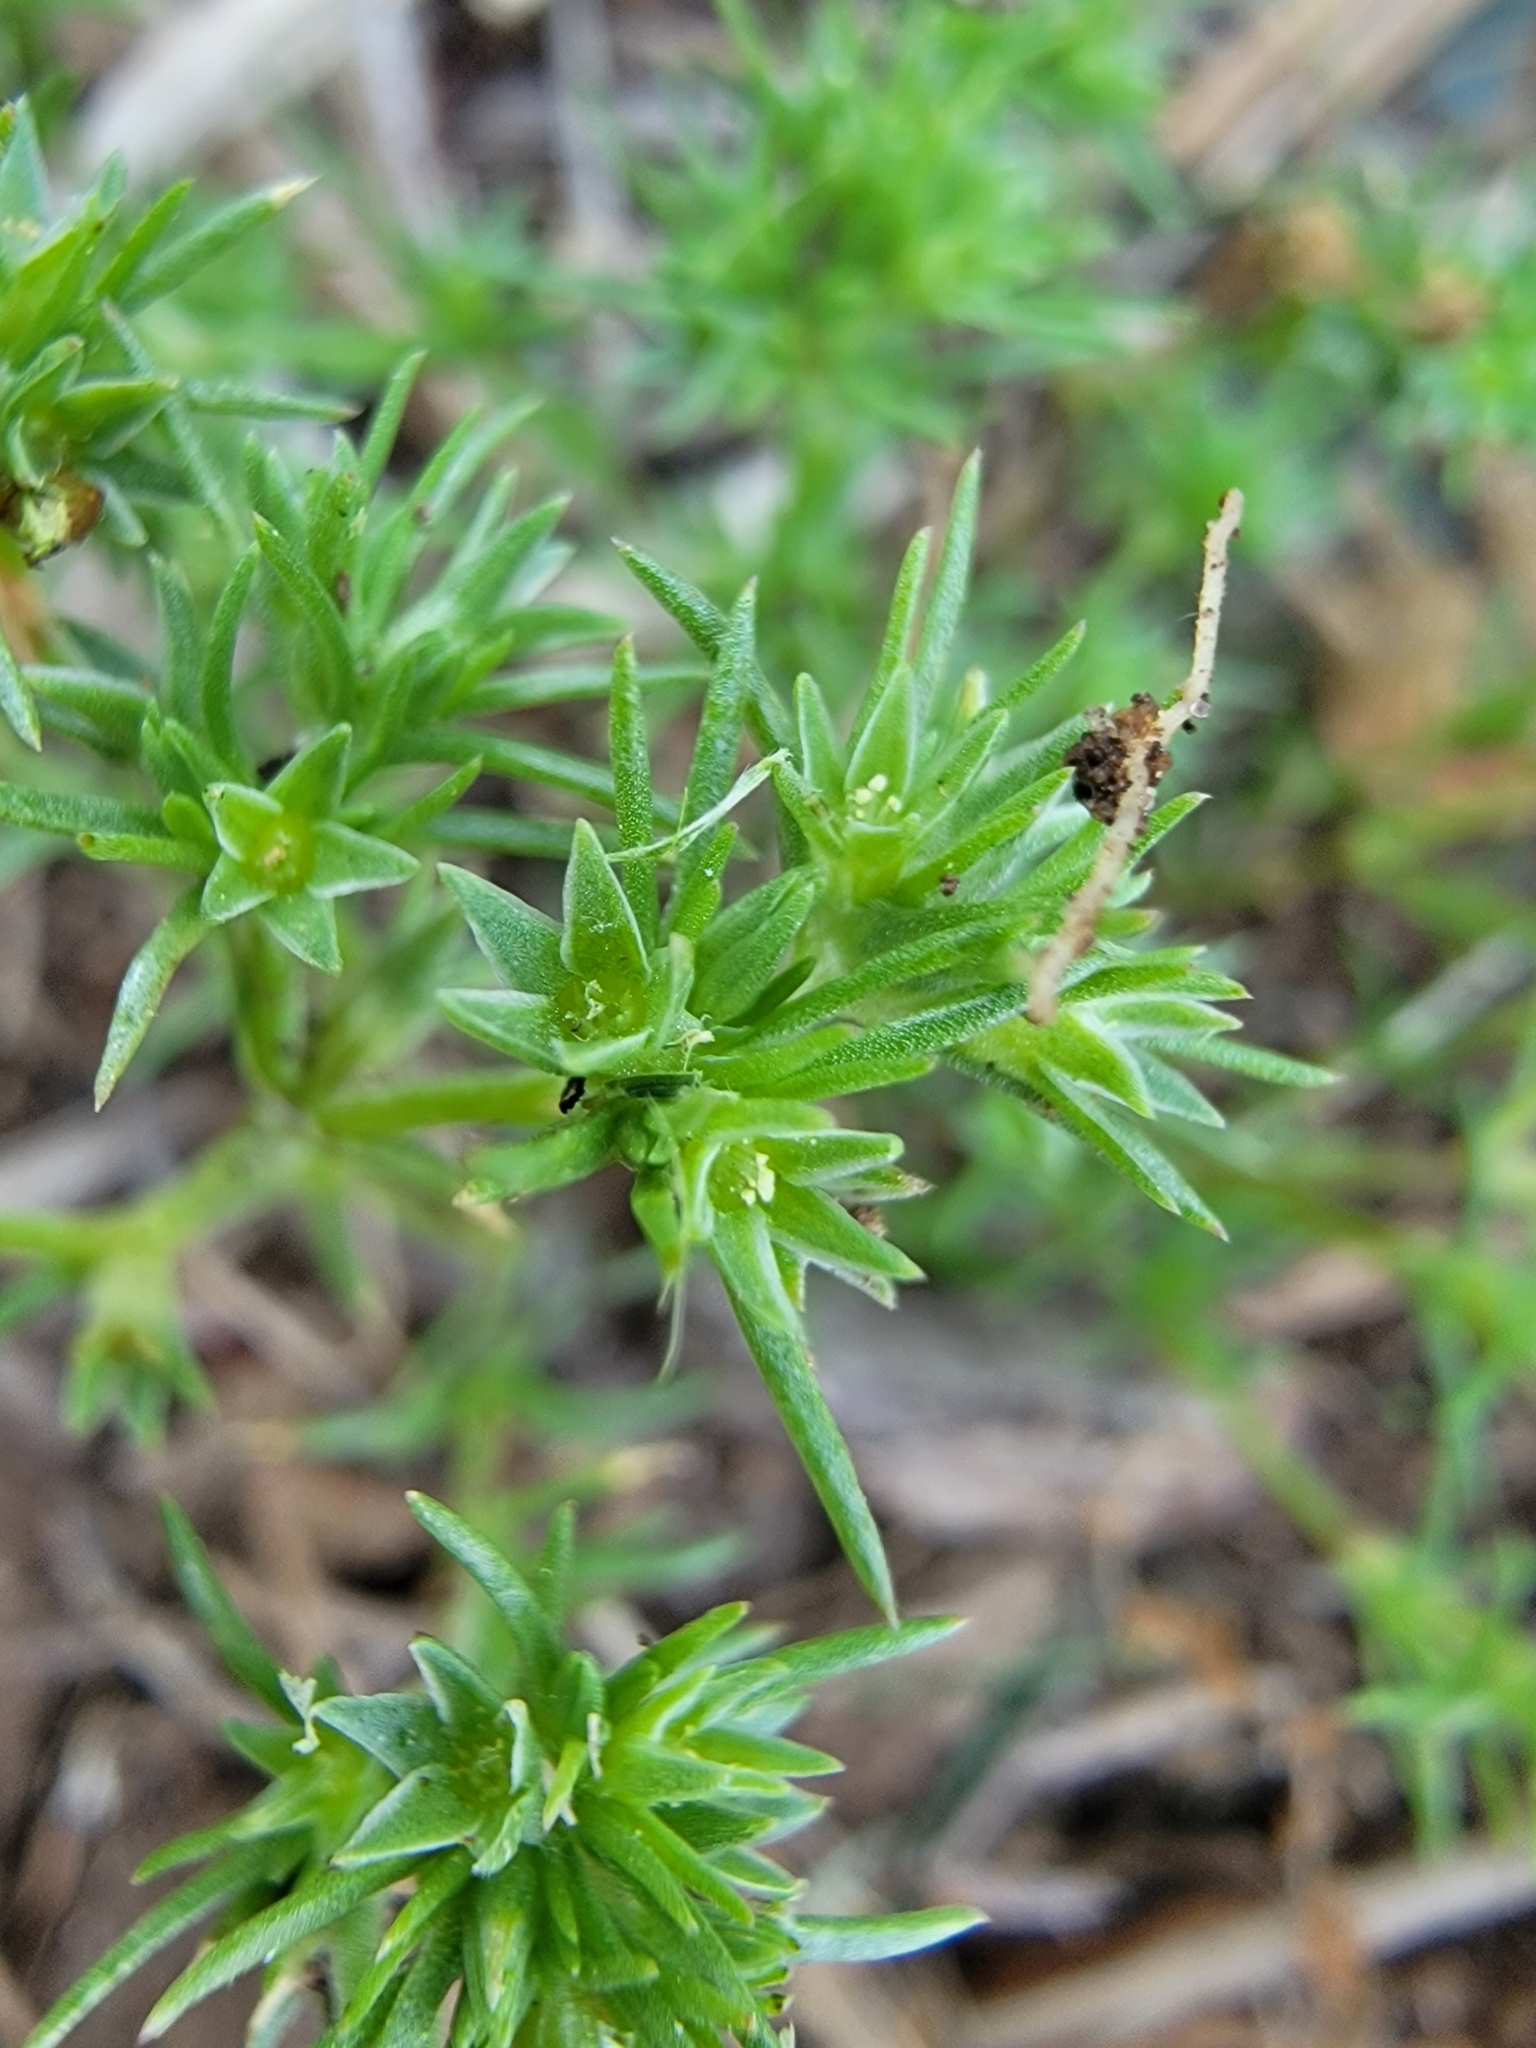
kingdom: Plantae
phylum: Tracheophyta
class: Magnoliopsida
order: Caryophyllales
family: Caryophyllaceae
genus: Scleranthus
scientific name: Scleranthus annuus
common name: Annual knawel
